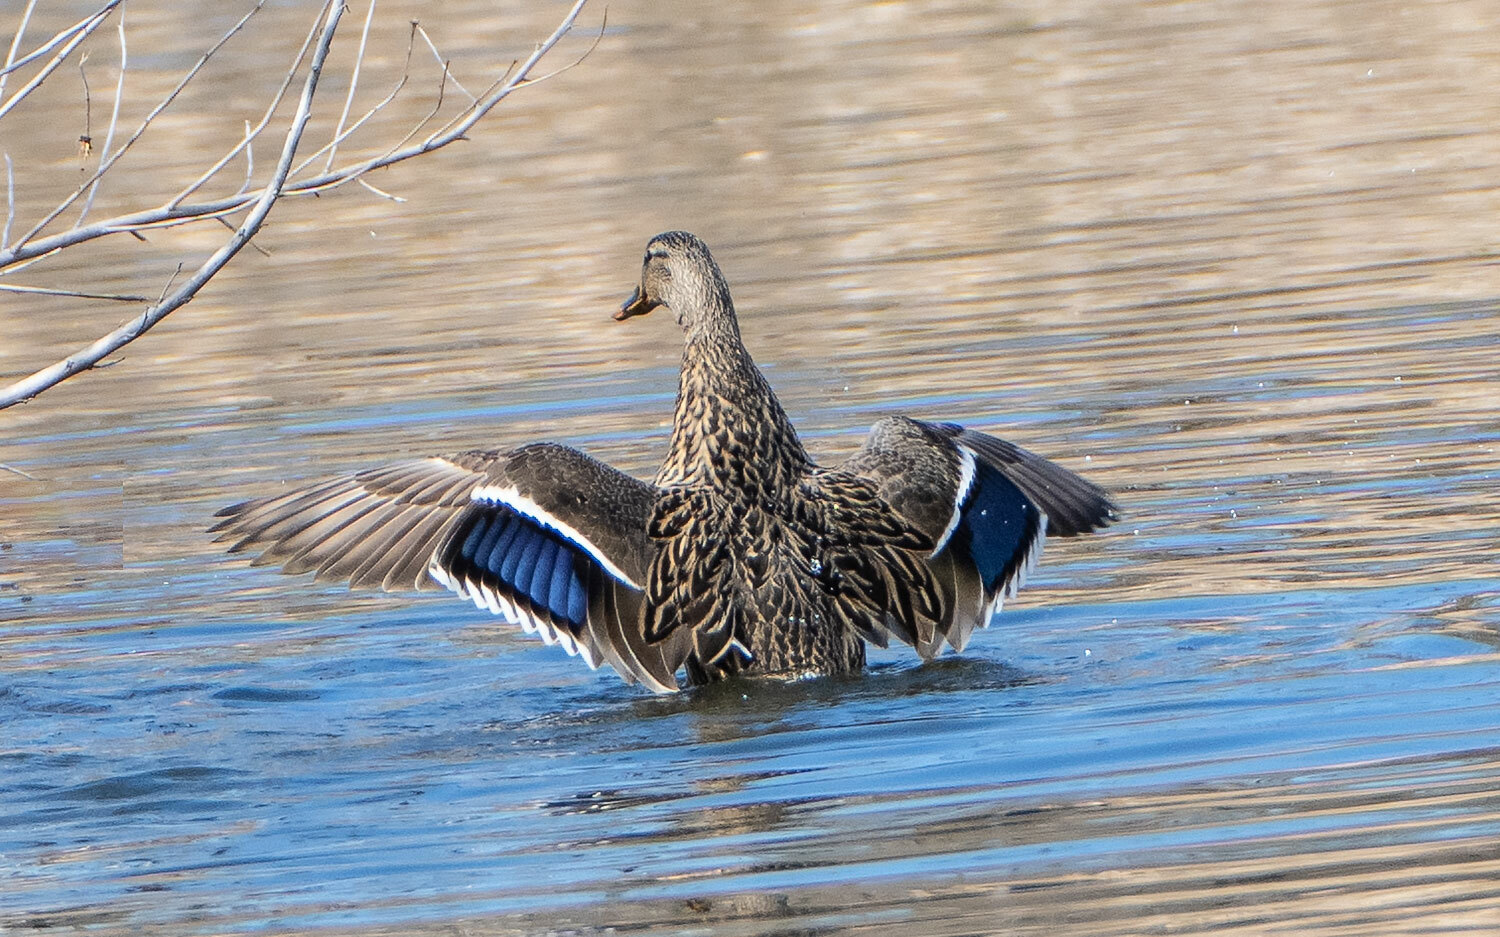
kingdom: Animalia
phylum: Chordata
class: Aves
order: Anseriformes
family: Anatidae
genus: Anas
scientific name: Anas platyrhynchos
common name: Mallard
